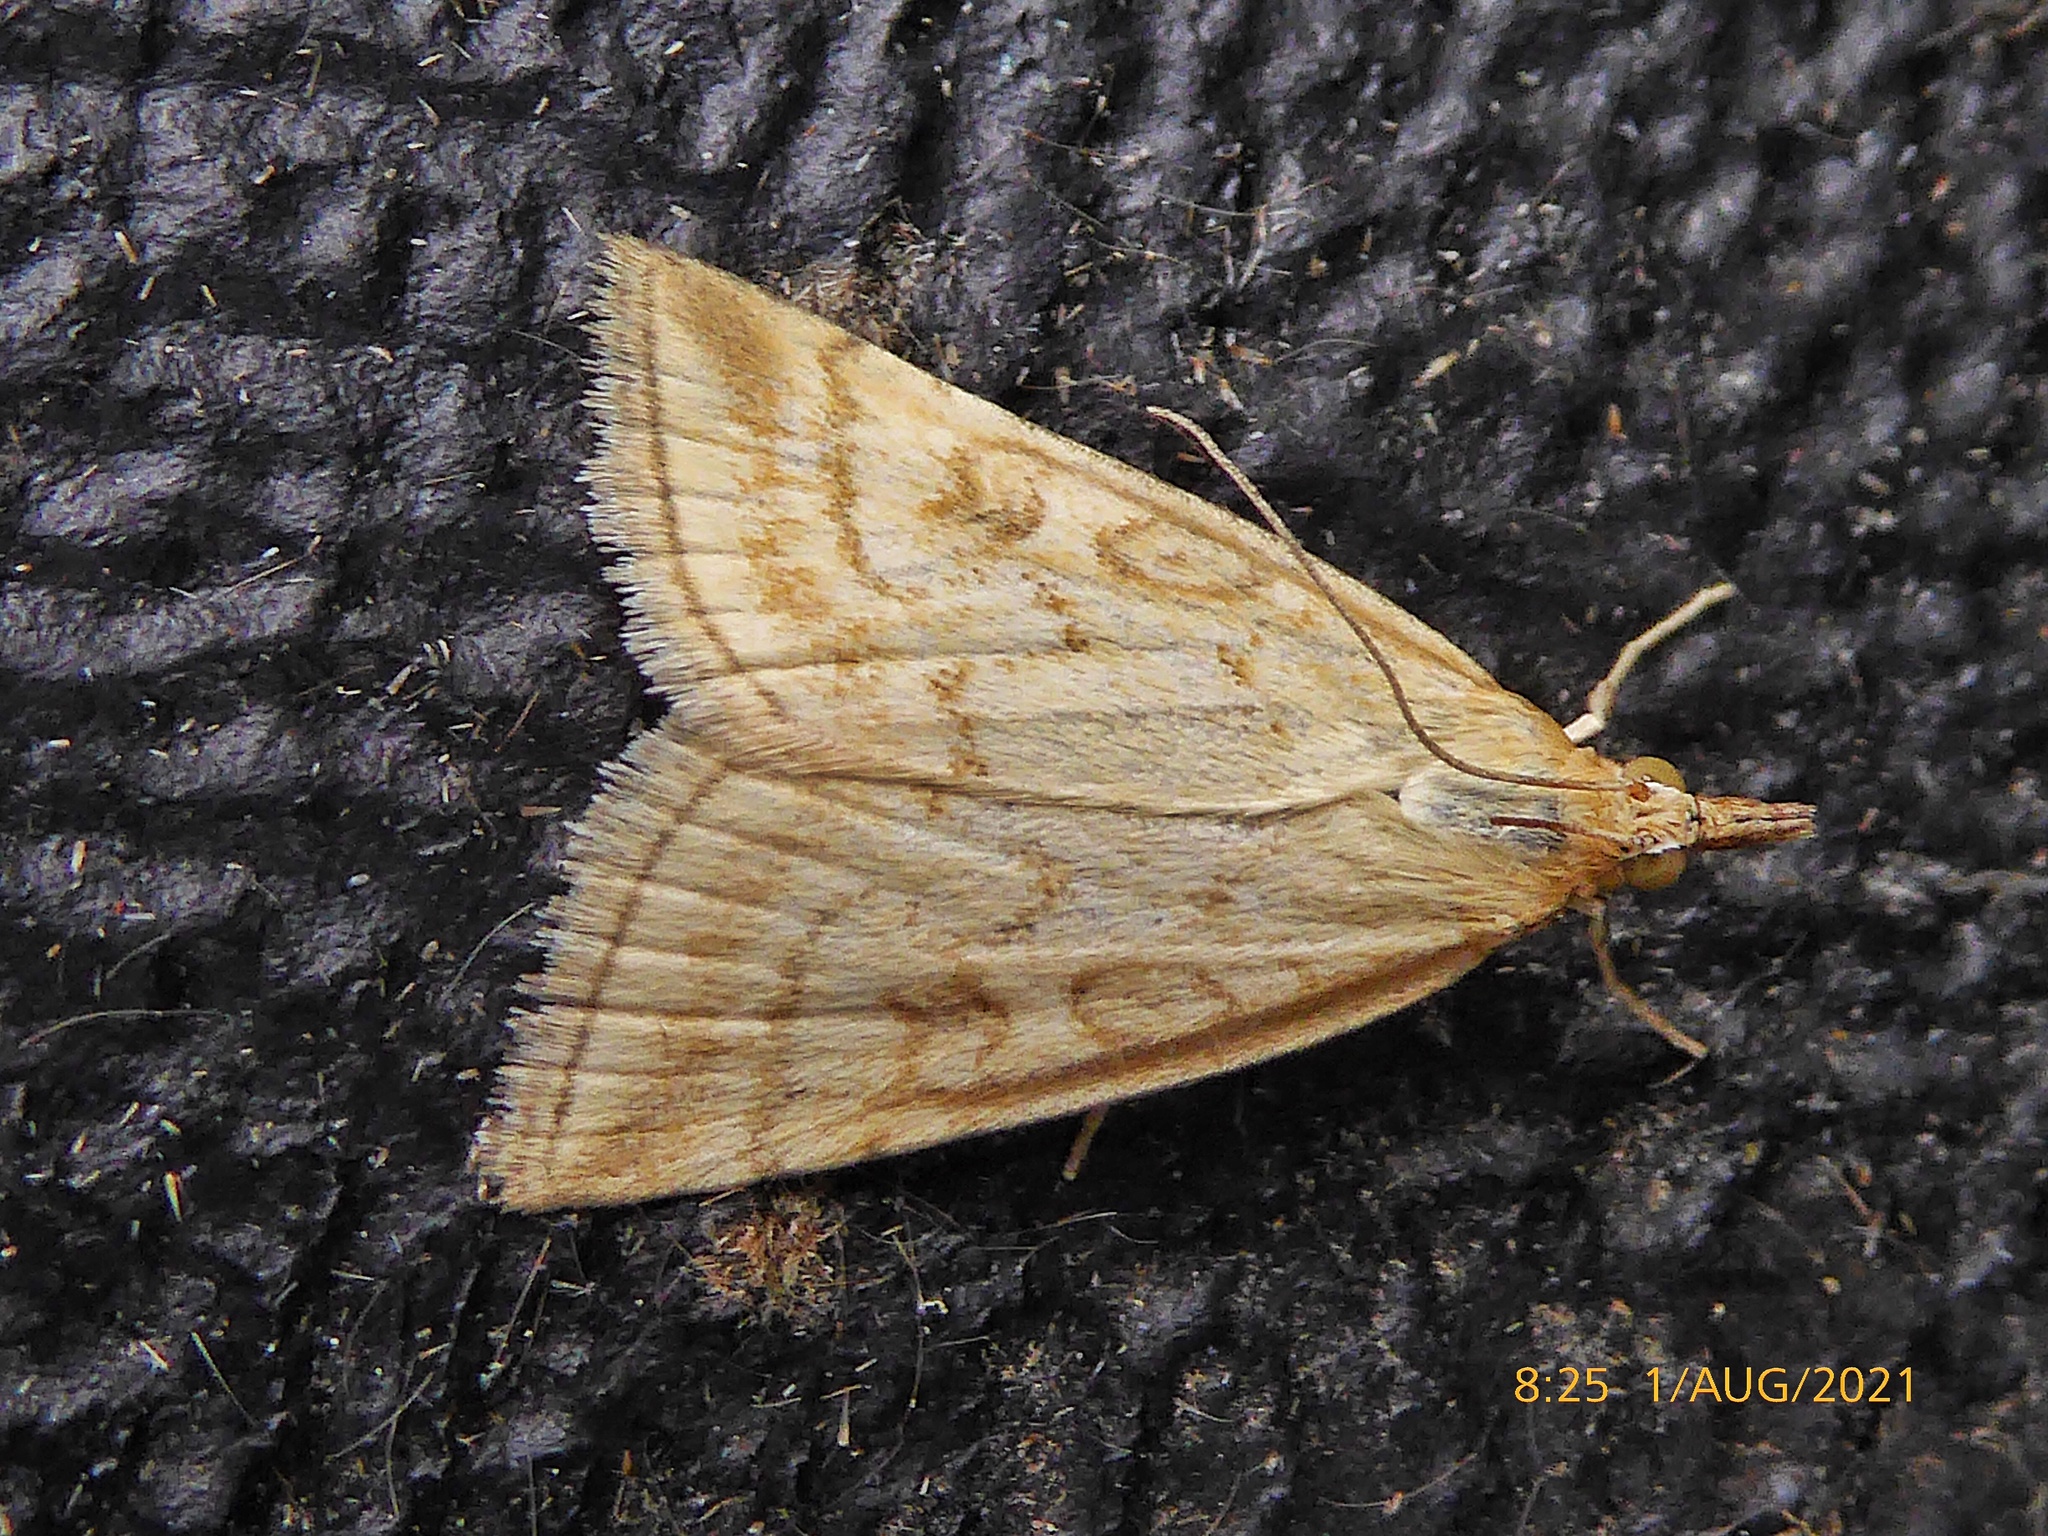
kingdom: Animalia
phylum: Arthropoda
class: Insecta
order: Lepidoptera
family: Crambidae
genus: Udea
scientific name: Udea lutealis
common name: Pale straw pearl
